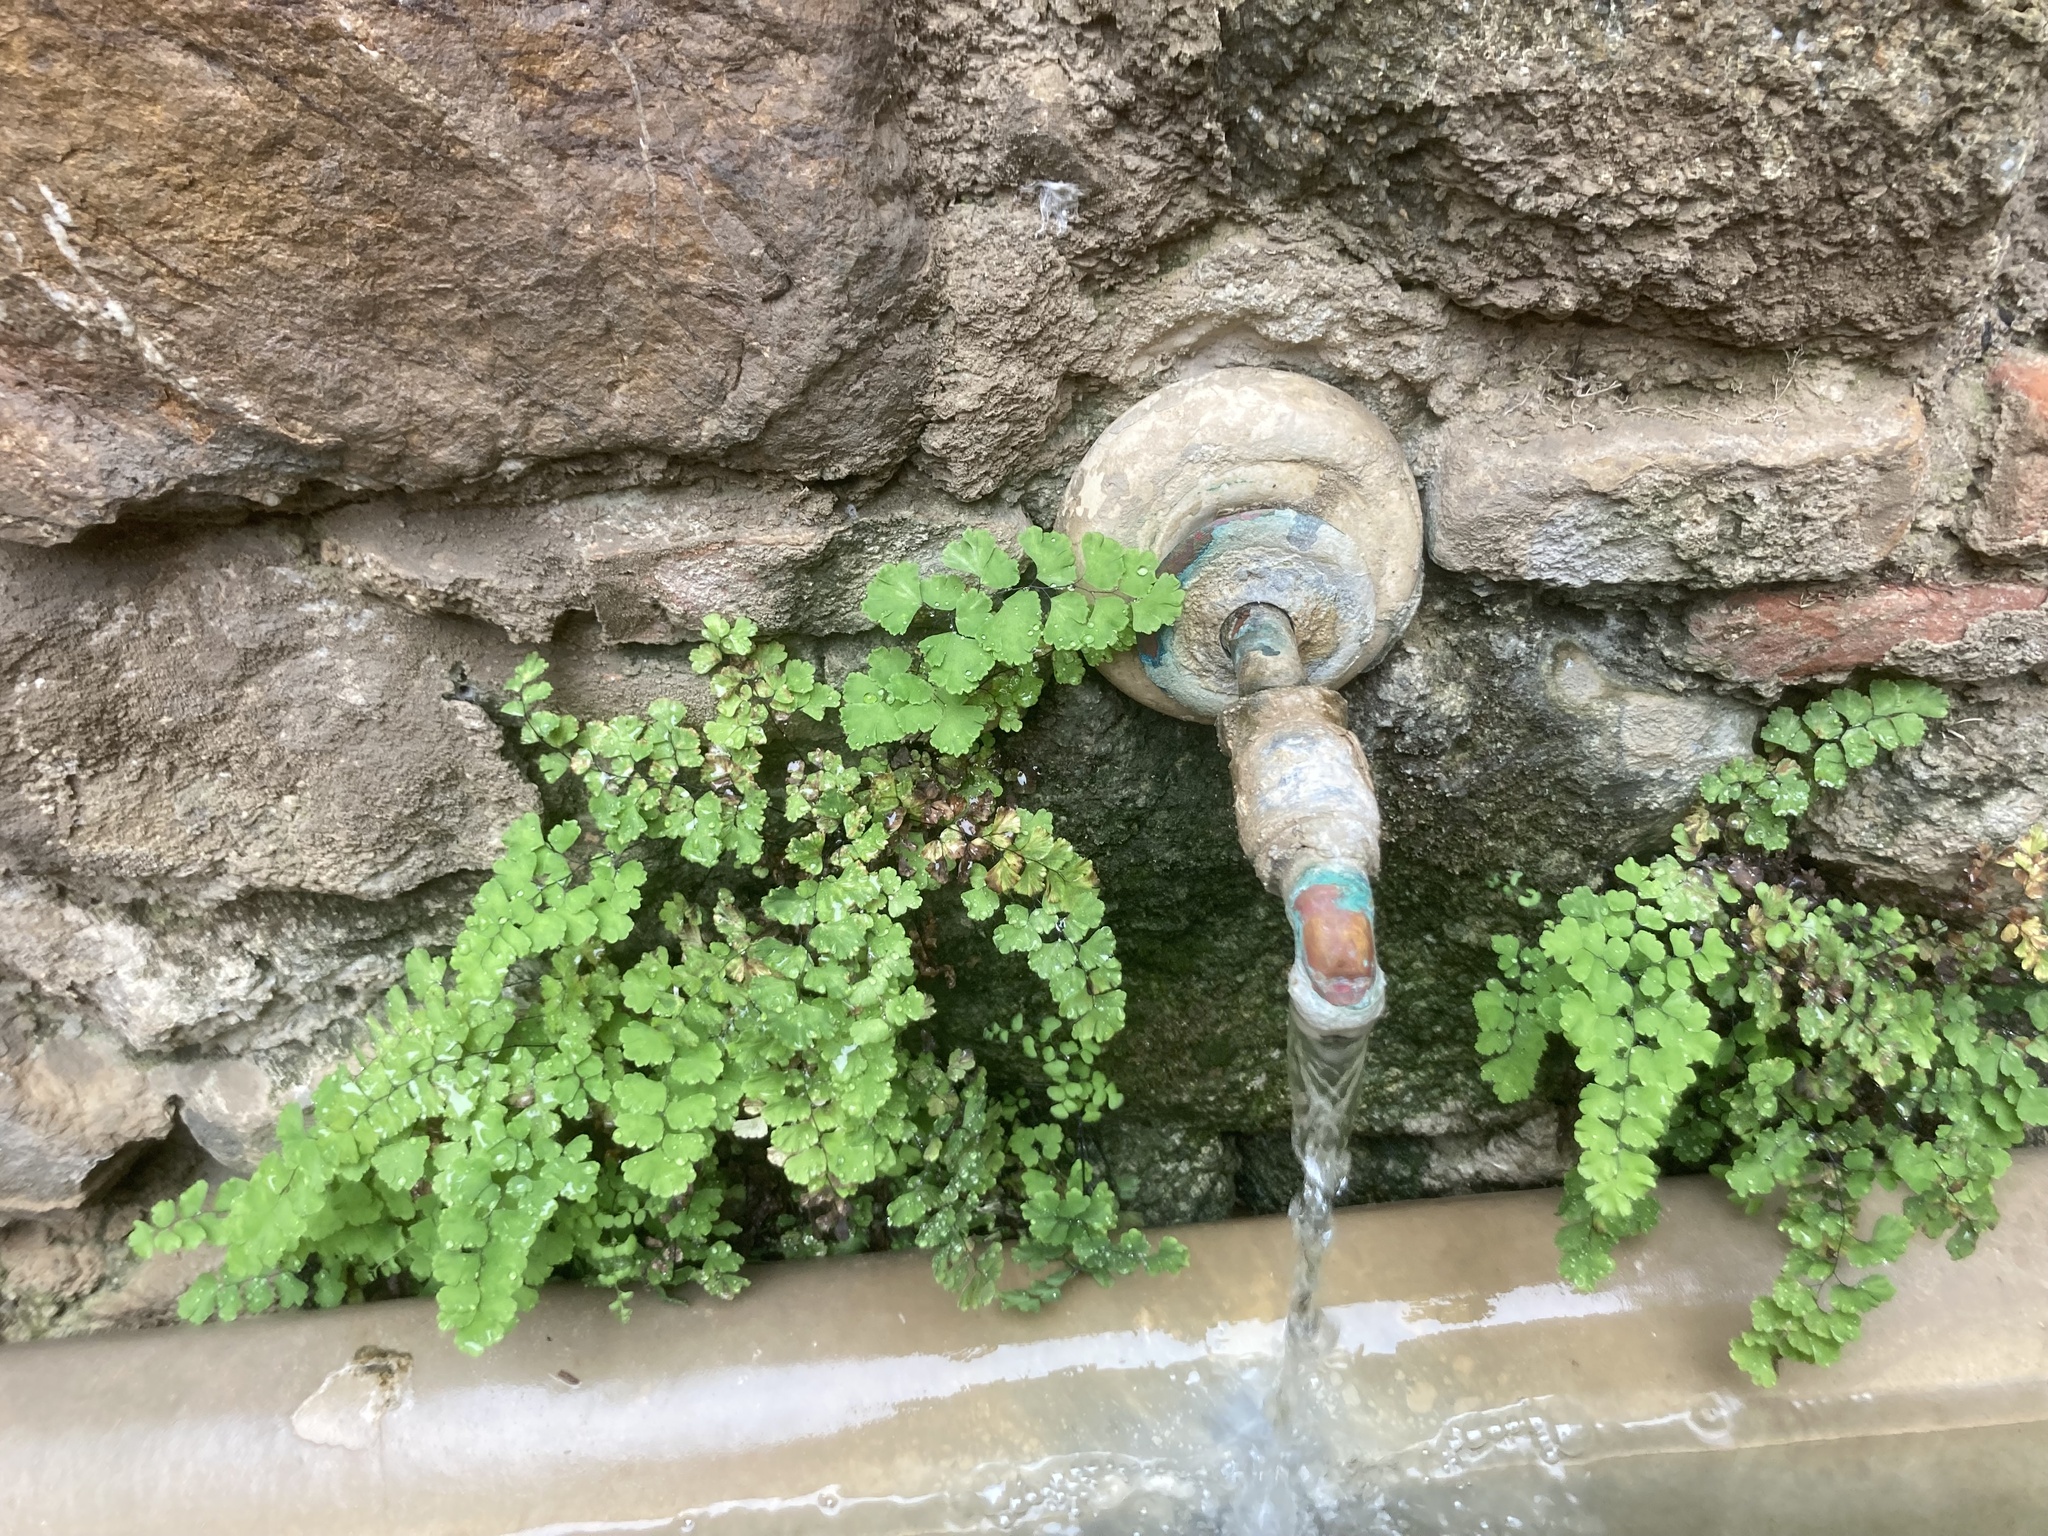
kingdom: Plantae
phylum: Tracheophyta
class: Polypodiopsida
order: Polypodiales
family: Pteridaceae
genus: Adiantum
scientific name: Adiantum capillus-veneris
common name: Maidenhair fern
